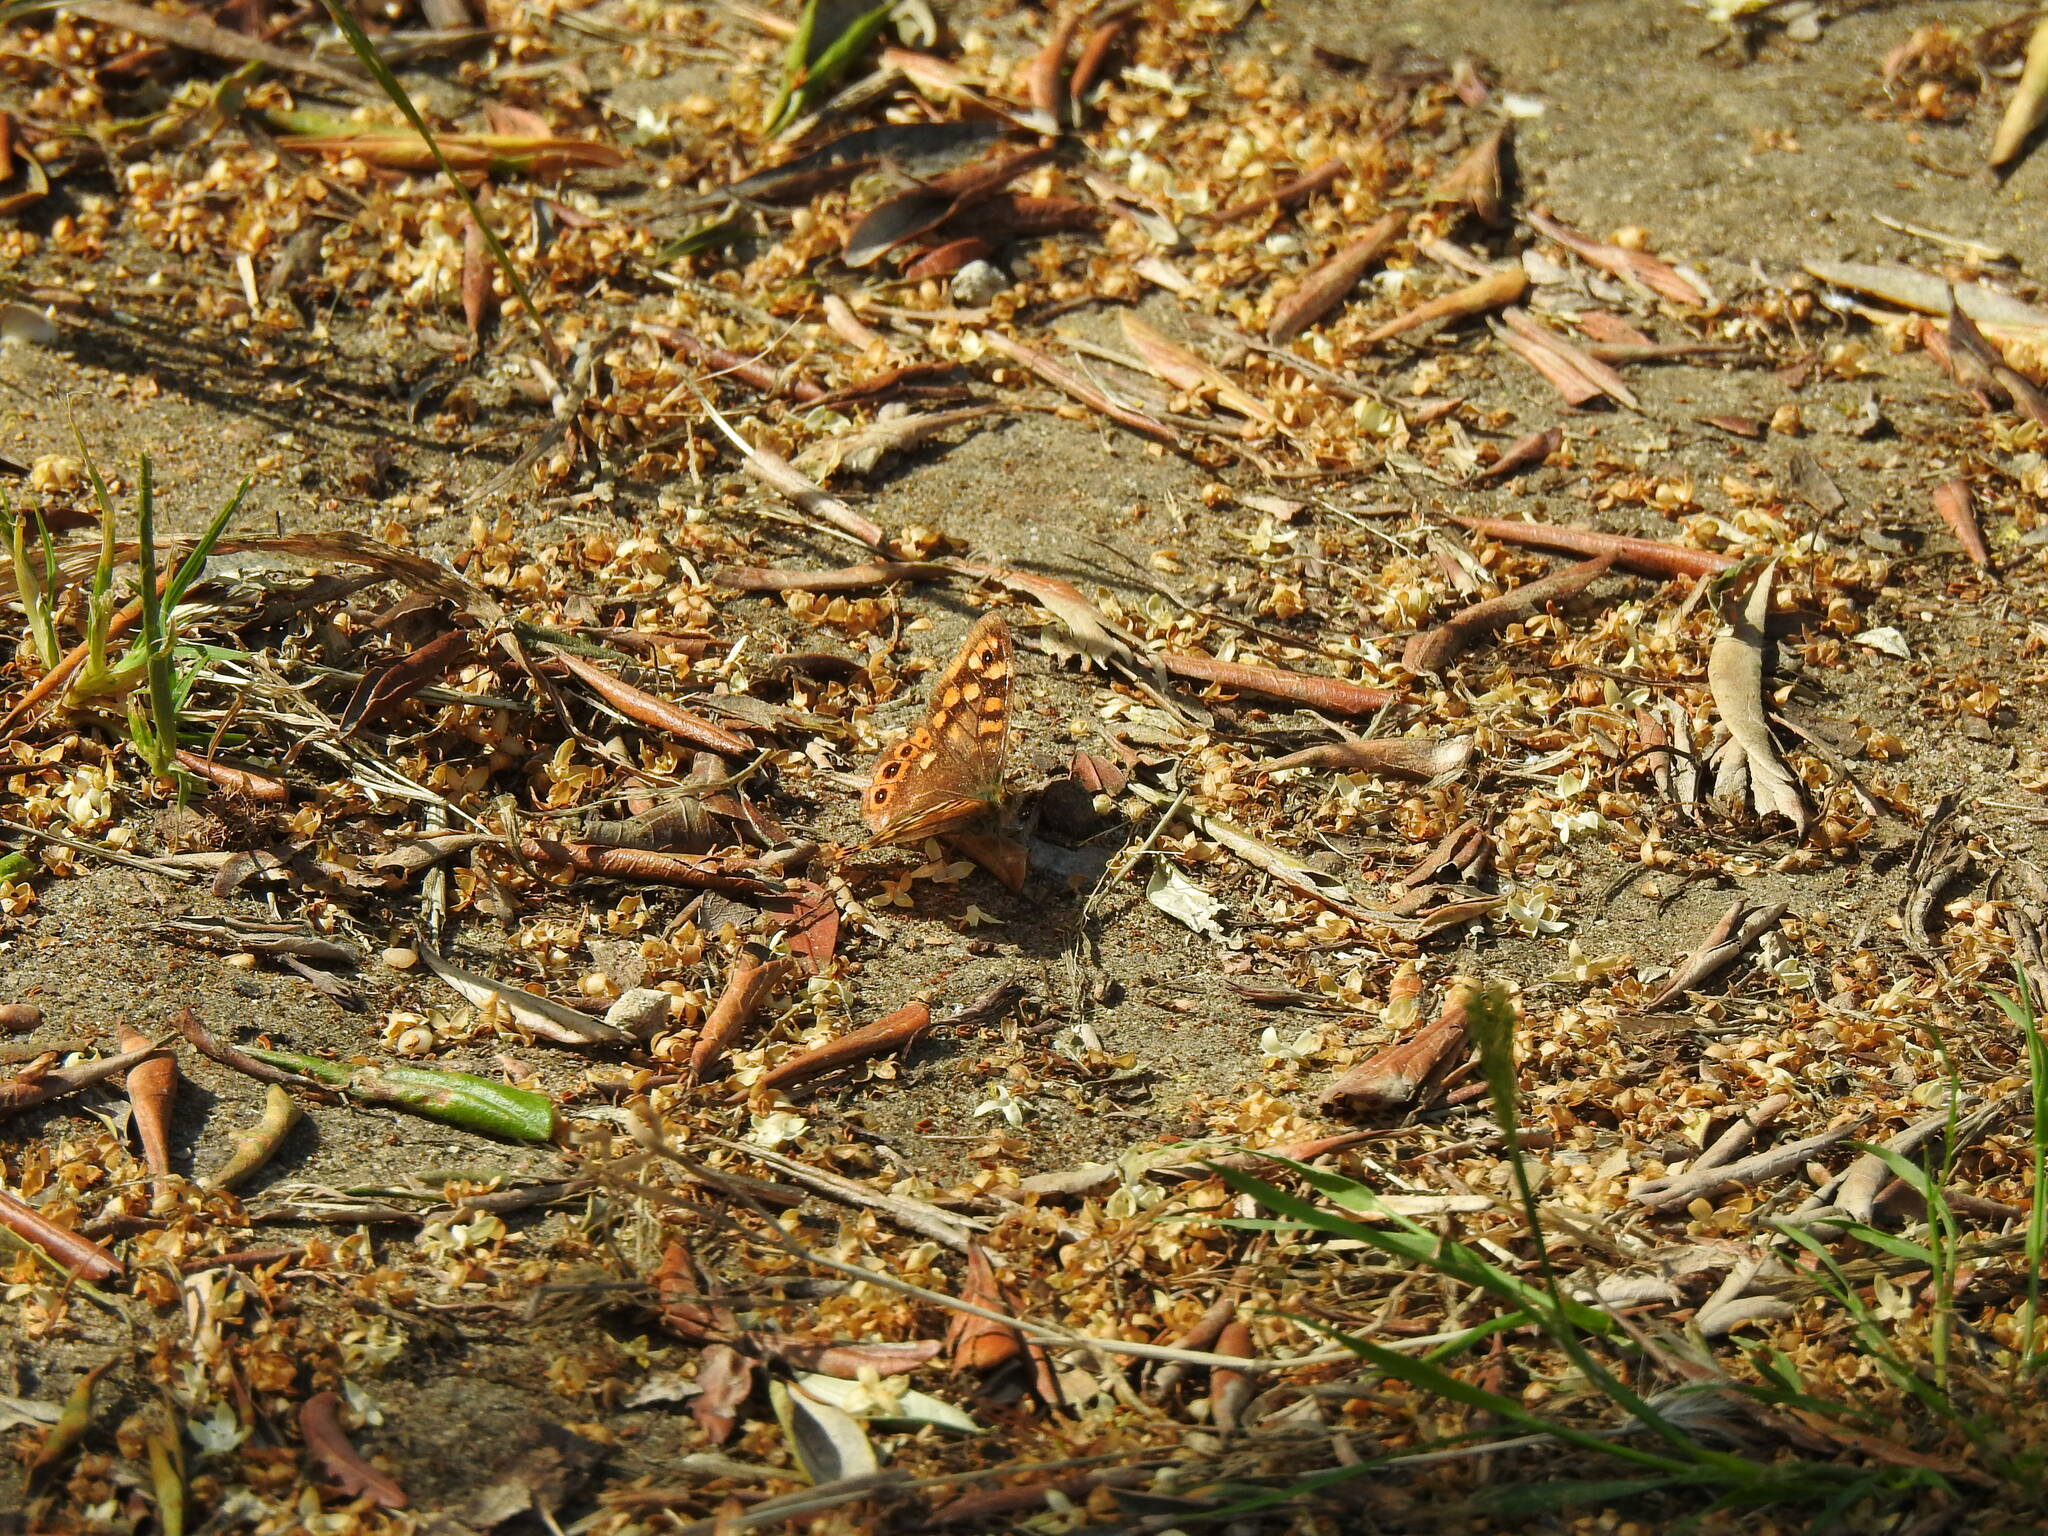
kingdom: Animalia
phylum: Arthropoda
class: Insecta
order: Lepidoptera
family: Nymphalidae
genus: Pararge
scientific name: Pararge aegeria
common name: Speckled wood
